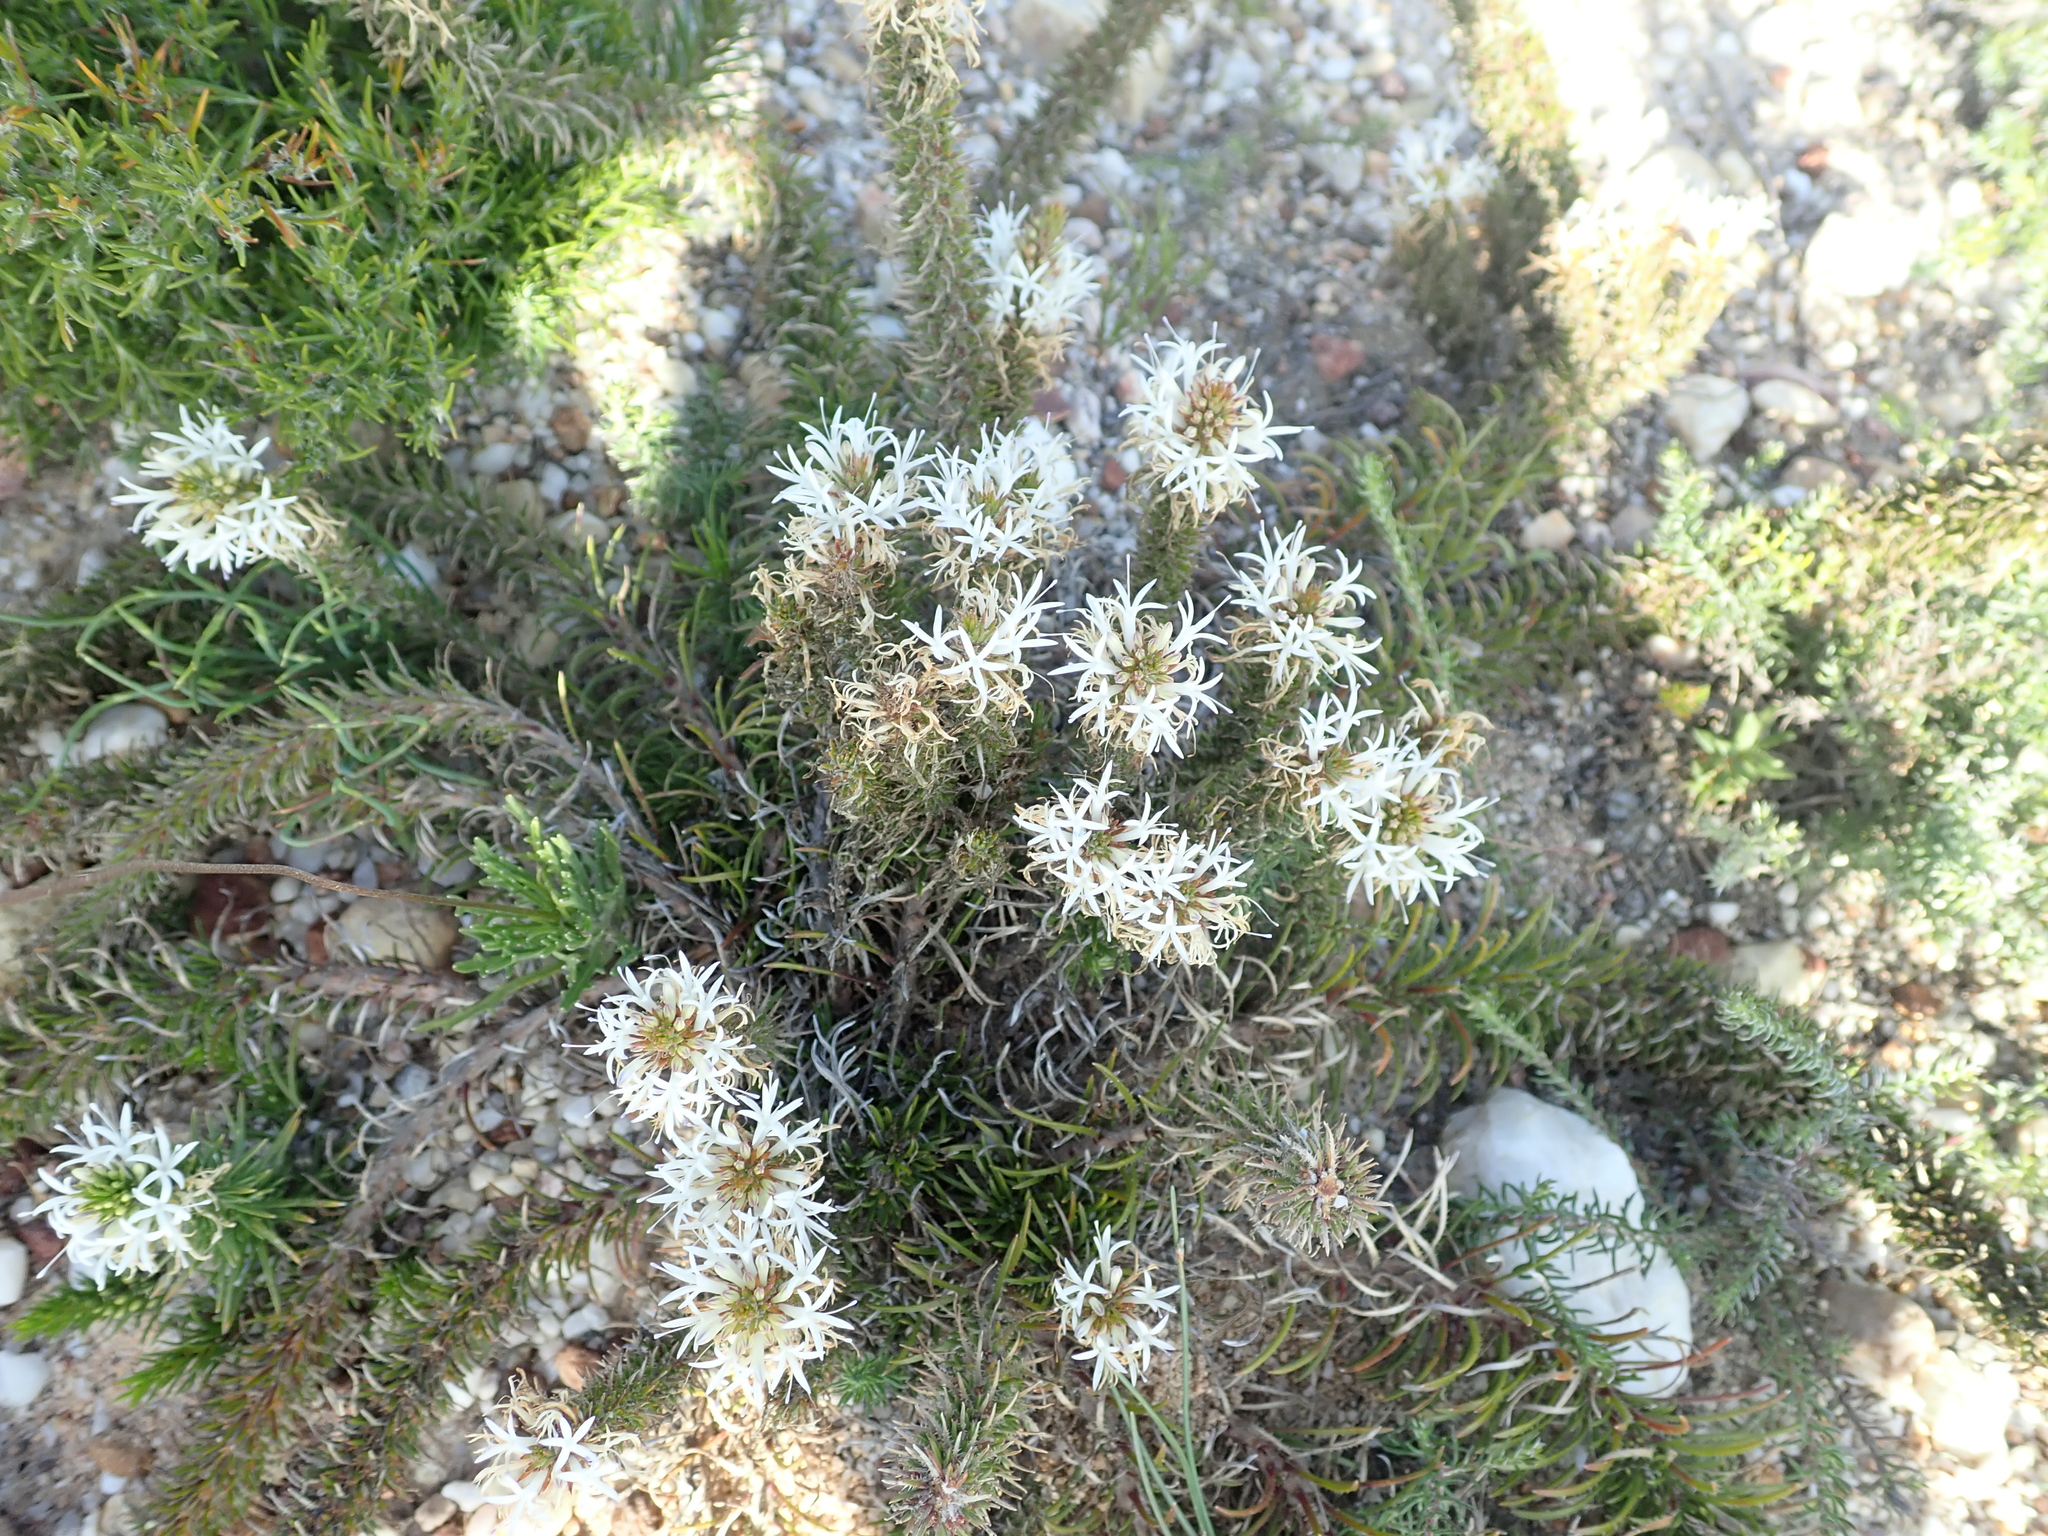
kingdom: Plantae
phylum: Tracheophyta
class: Magnoliopsida
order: Asterales
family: Campanulaceae
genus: Merciera
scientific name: Merciera leptoloba
